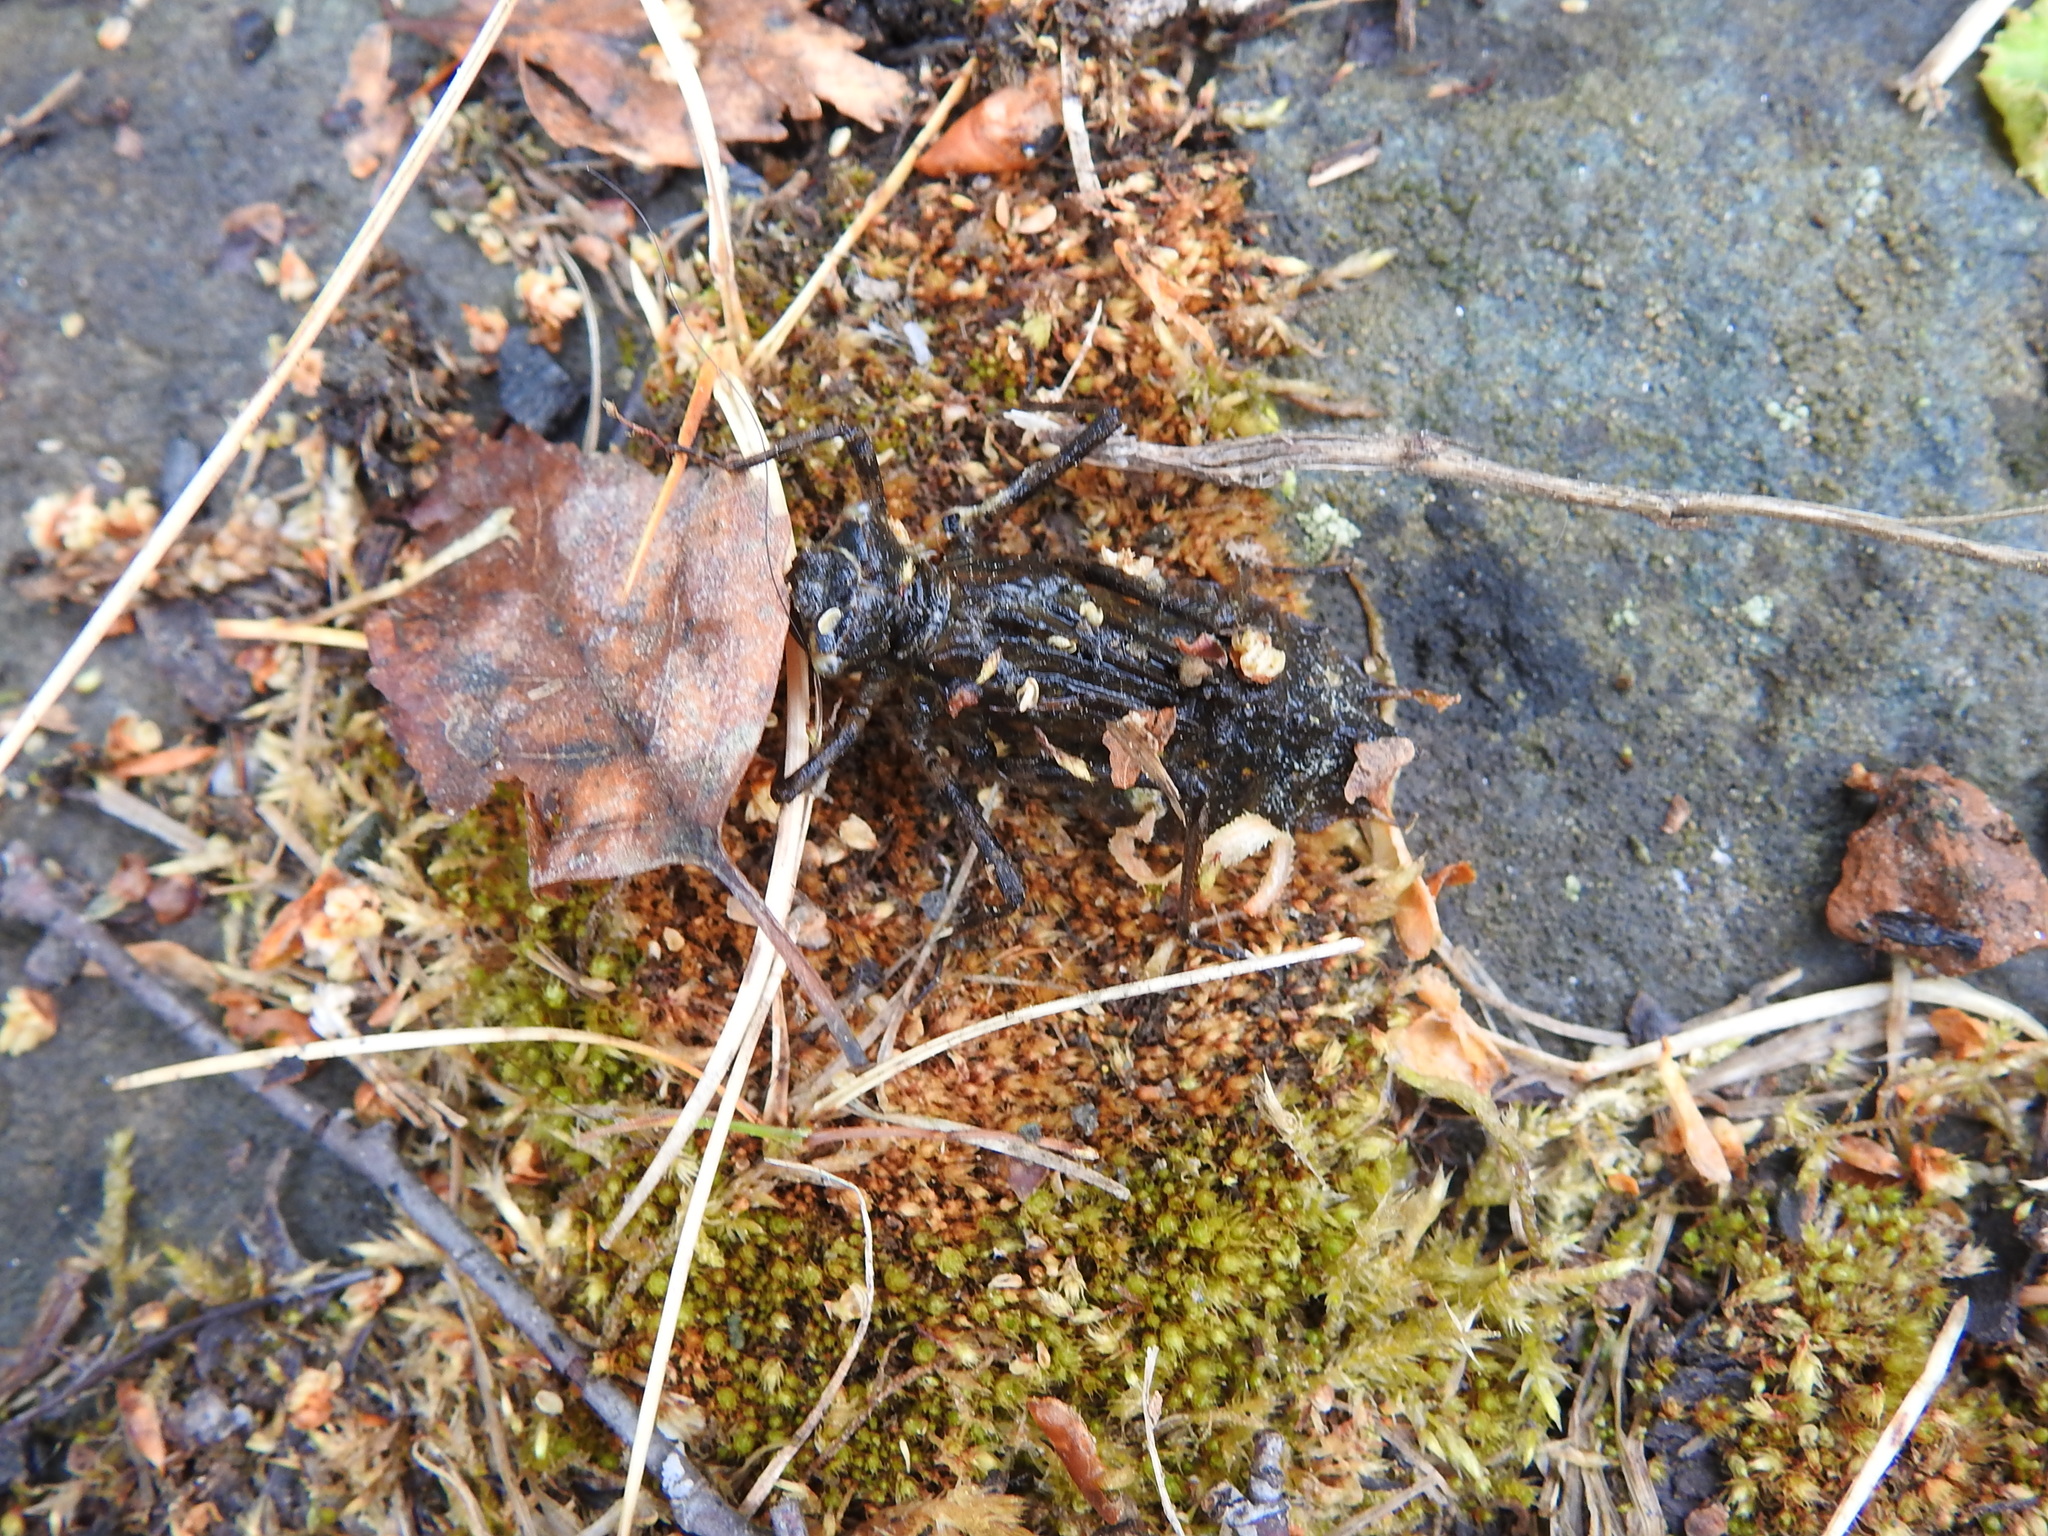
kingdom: Animalia
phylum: Arthropoda
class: Insecta
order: Odonata
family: Corduliidae
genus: Epitheca
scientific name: Epitheca bimaculata
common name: Eurasian baskettail
